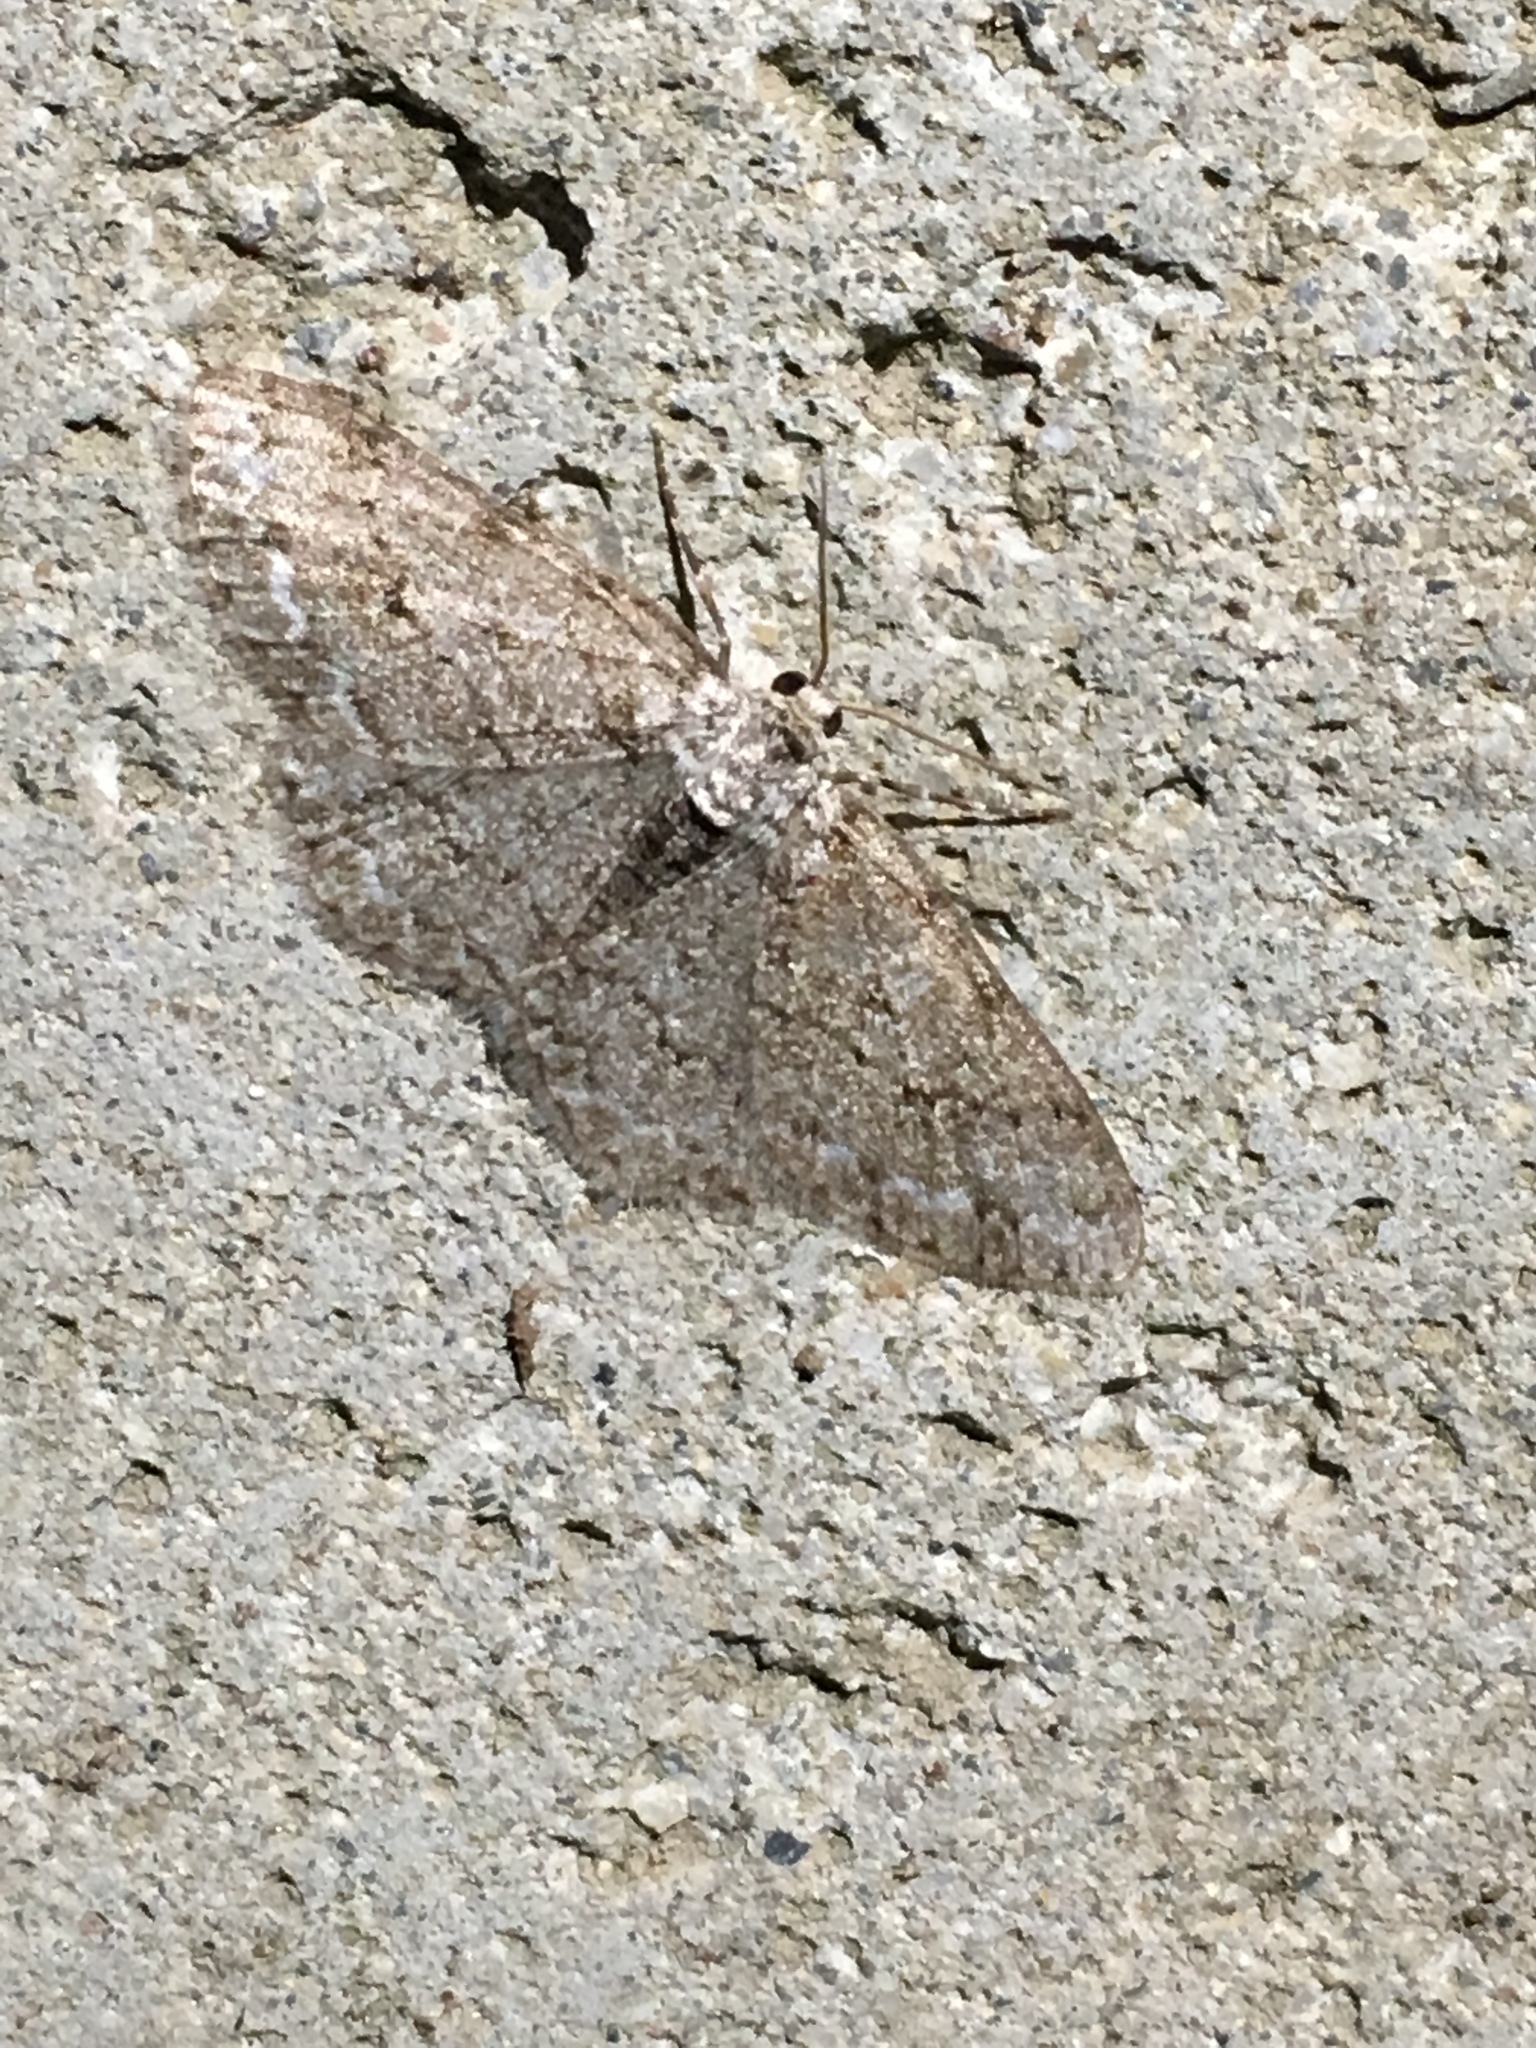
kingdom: Animalia
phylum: Arthropoda
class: Insecta
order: Lepidoptera
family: Geometridae
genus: Ectropis
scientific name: Ectropis crepuscularia
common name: Engrailed
